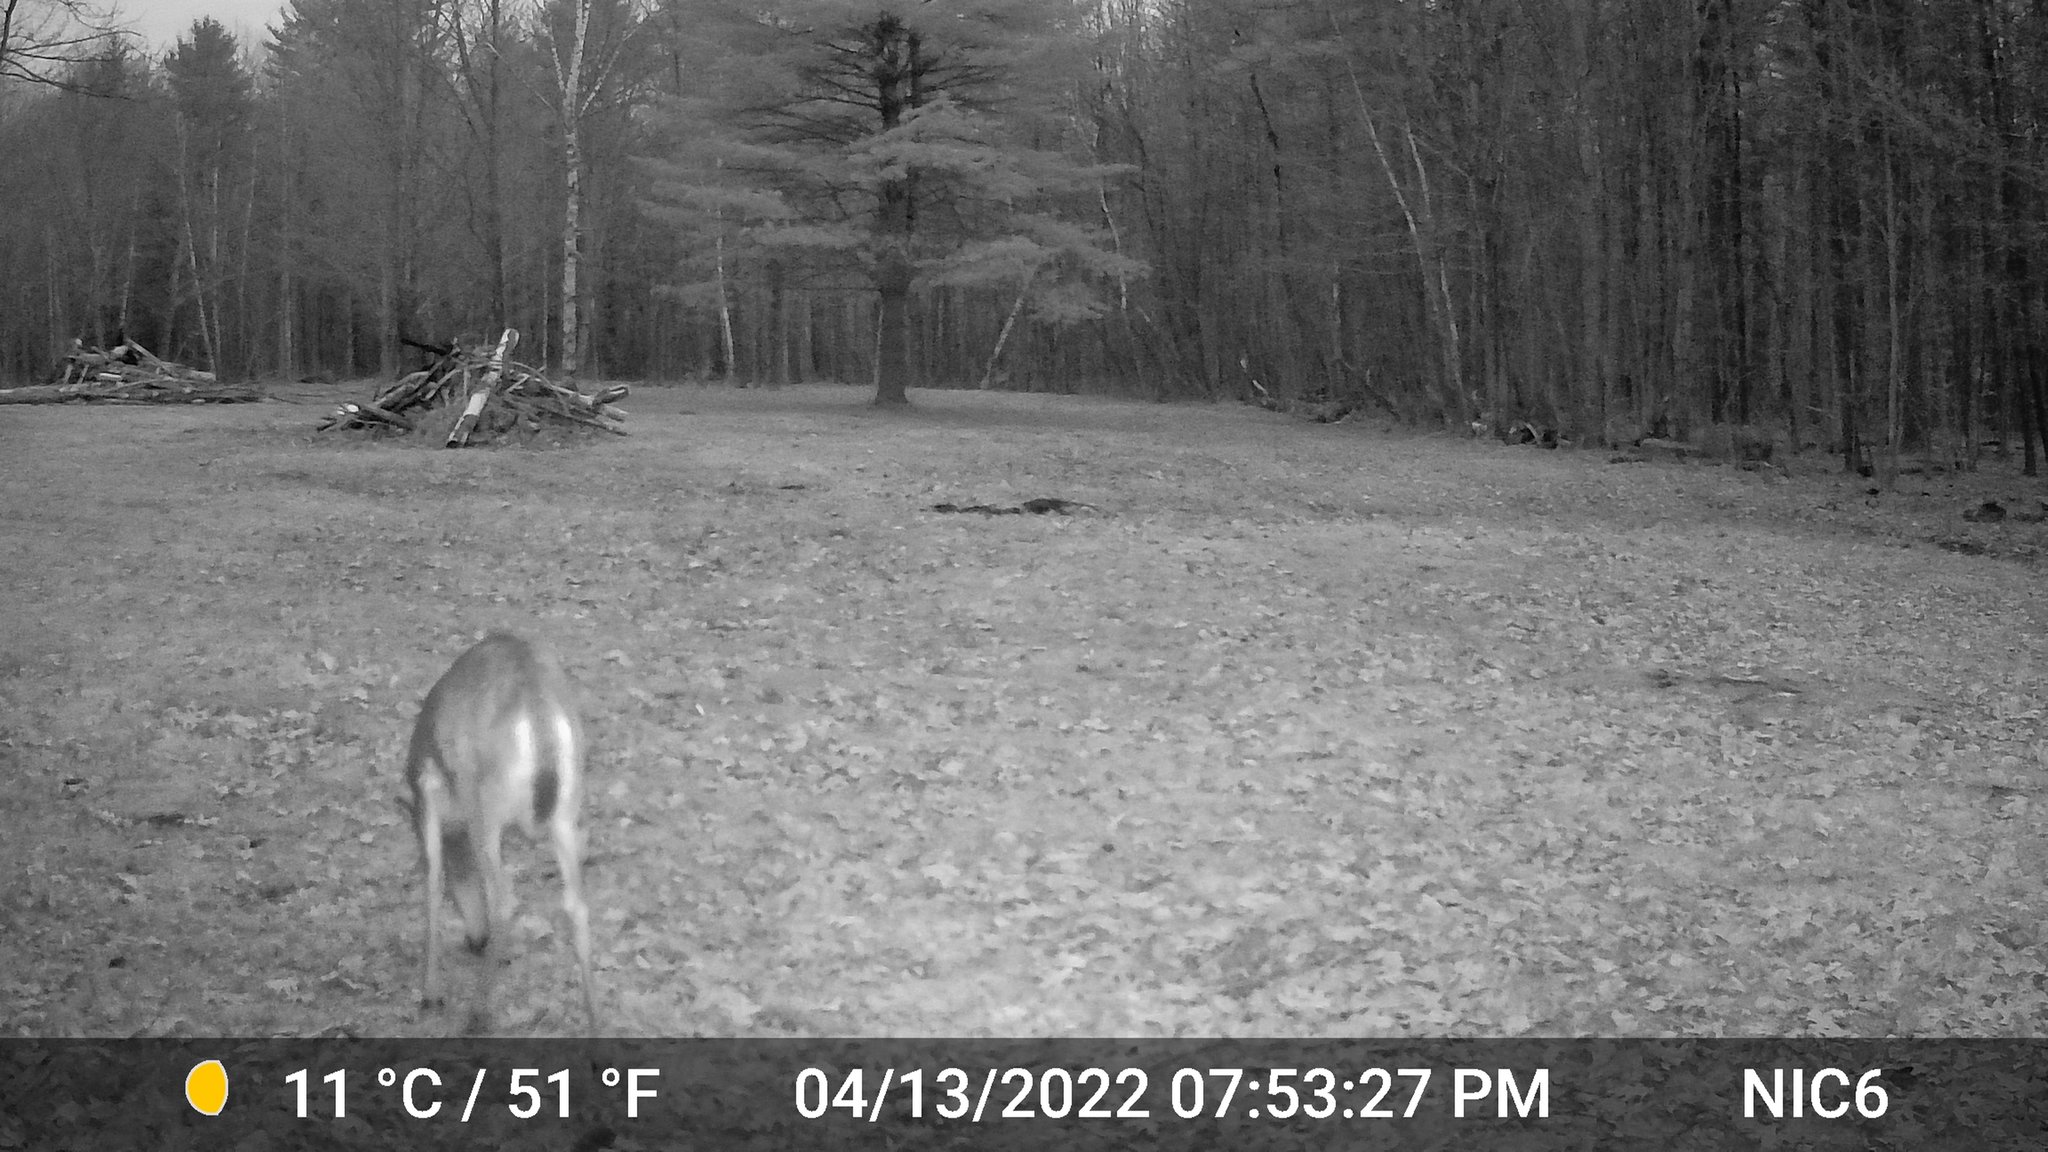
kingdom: Animalia
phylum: Chordata
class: Mammalia
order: Artiodactyla
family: Cervidae
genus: Odocoileus
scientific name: Odocoileus virginianus
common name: White-tailed deer
